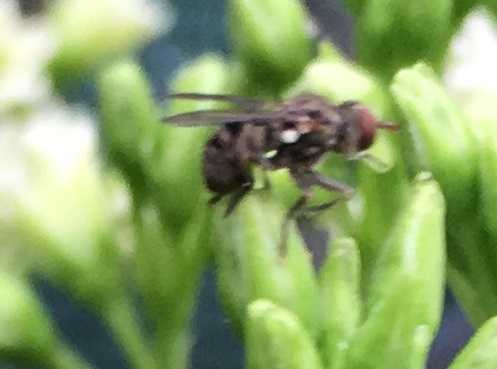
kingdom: Animalia
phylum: Arthropoda
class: Insecta
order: Diptera
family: Conopidae
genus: Zodion
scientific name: Zodion
